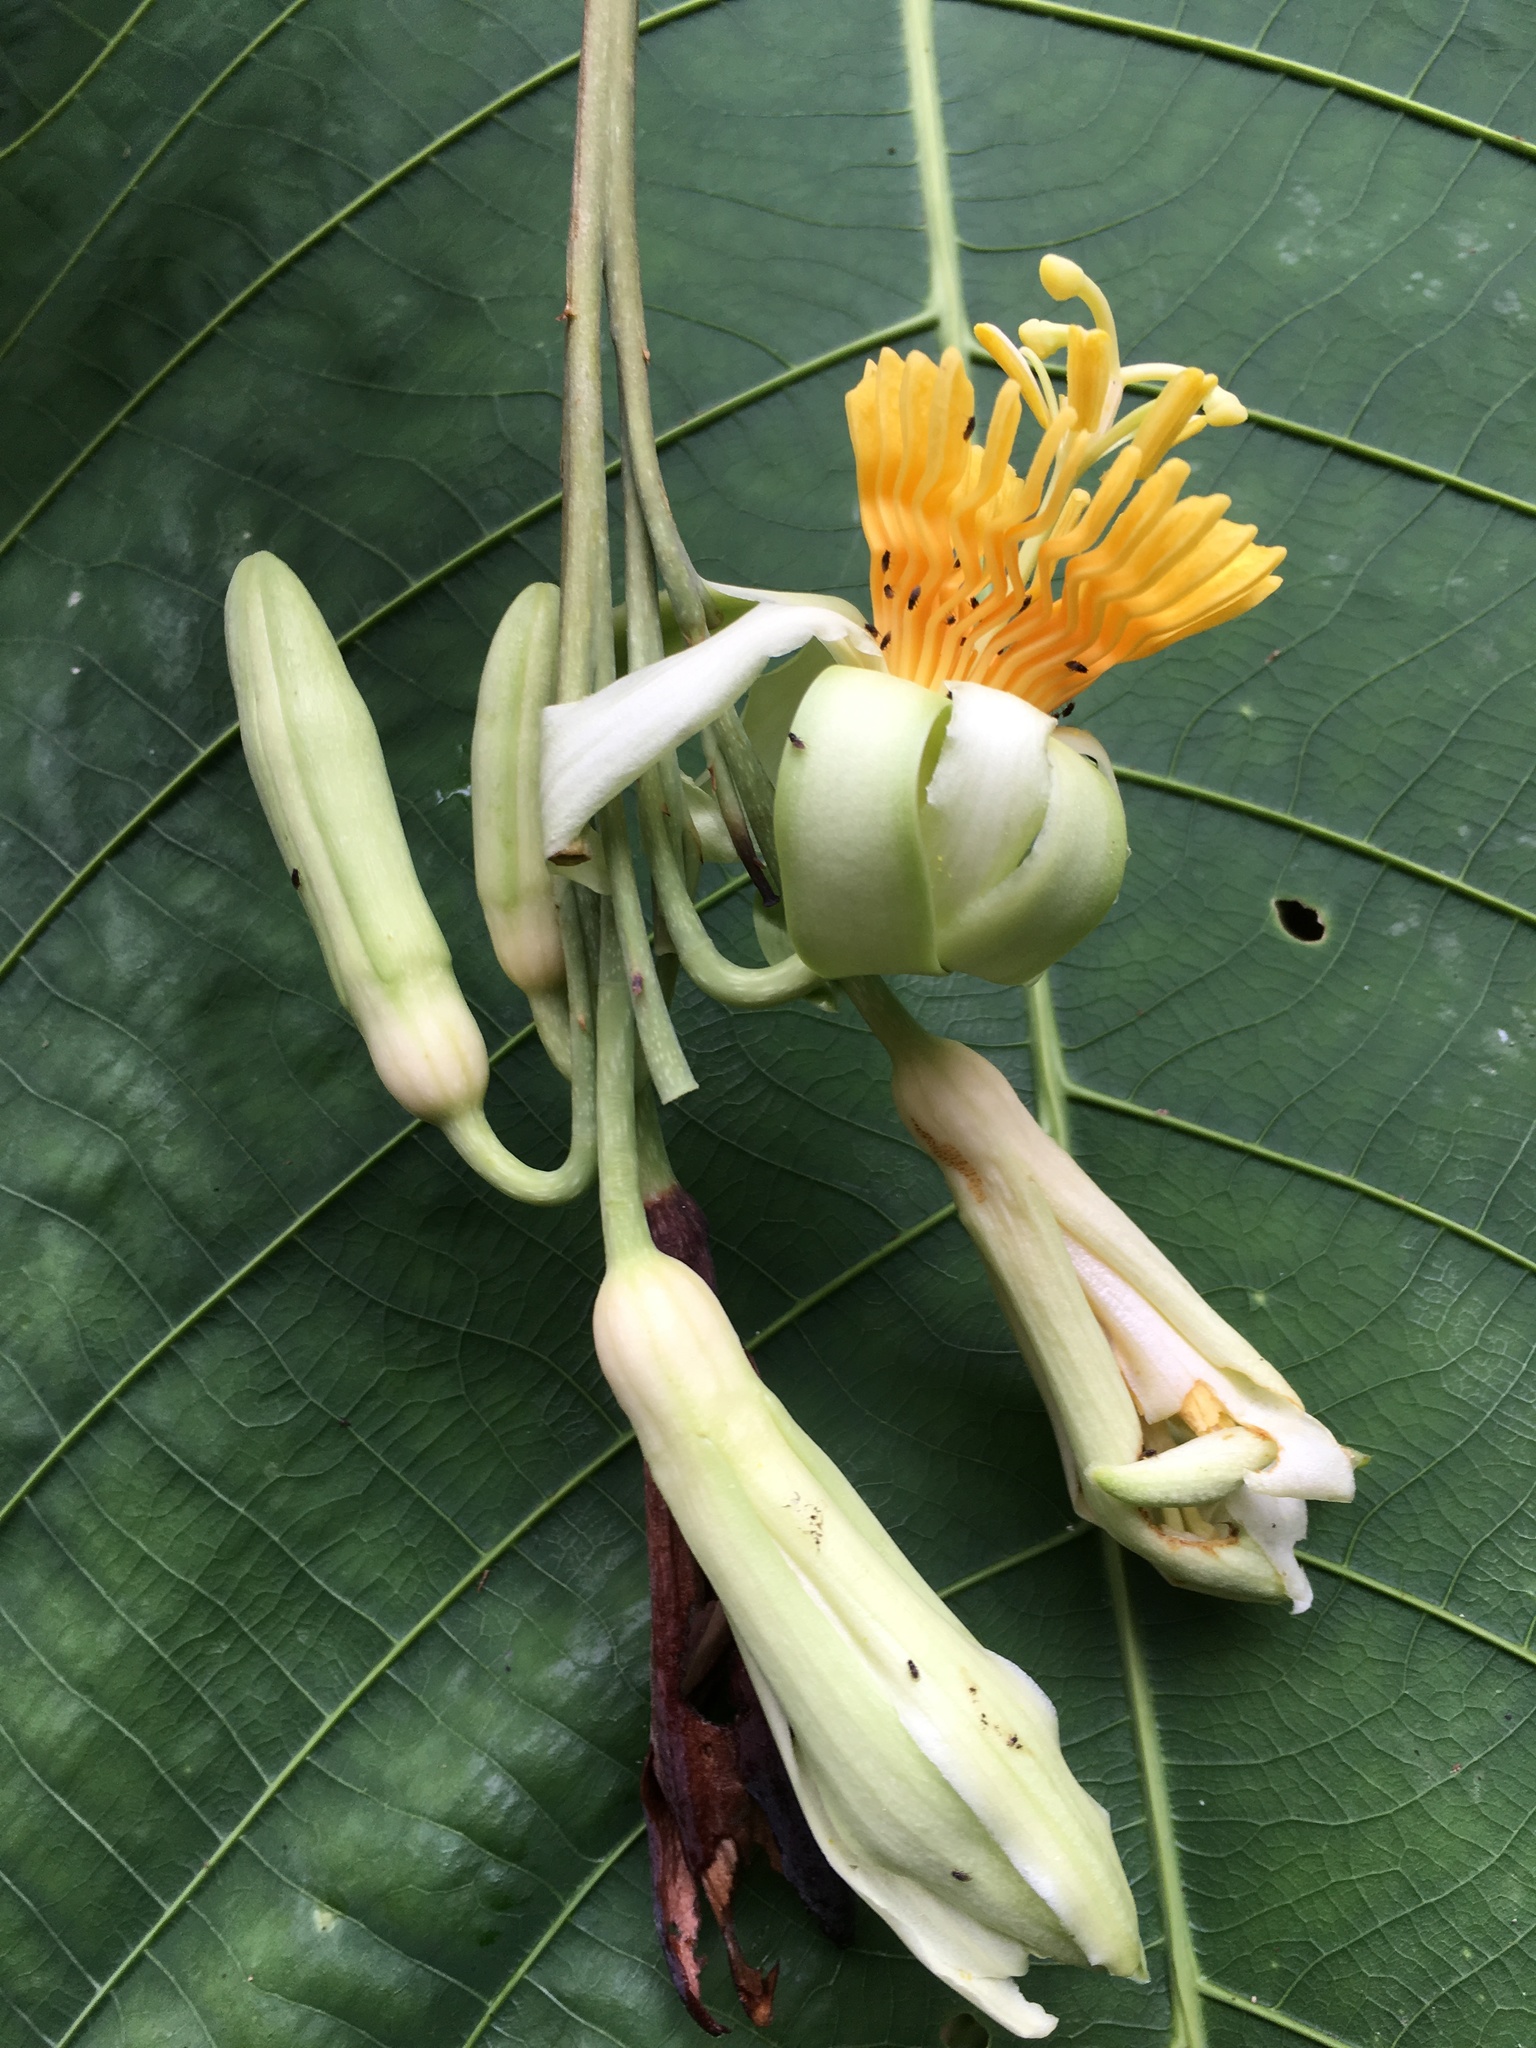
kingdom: Plantae
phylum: Tracheophyta
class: Magnoliopsida
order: Malpighiales
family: Passifloraceae
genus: Passiflora
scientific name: Passiflora macrophylla
